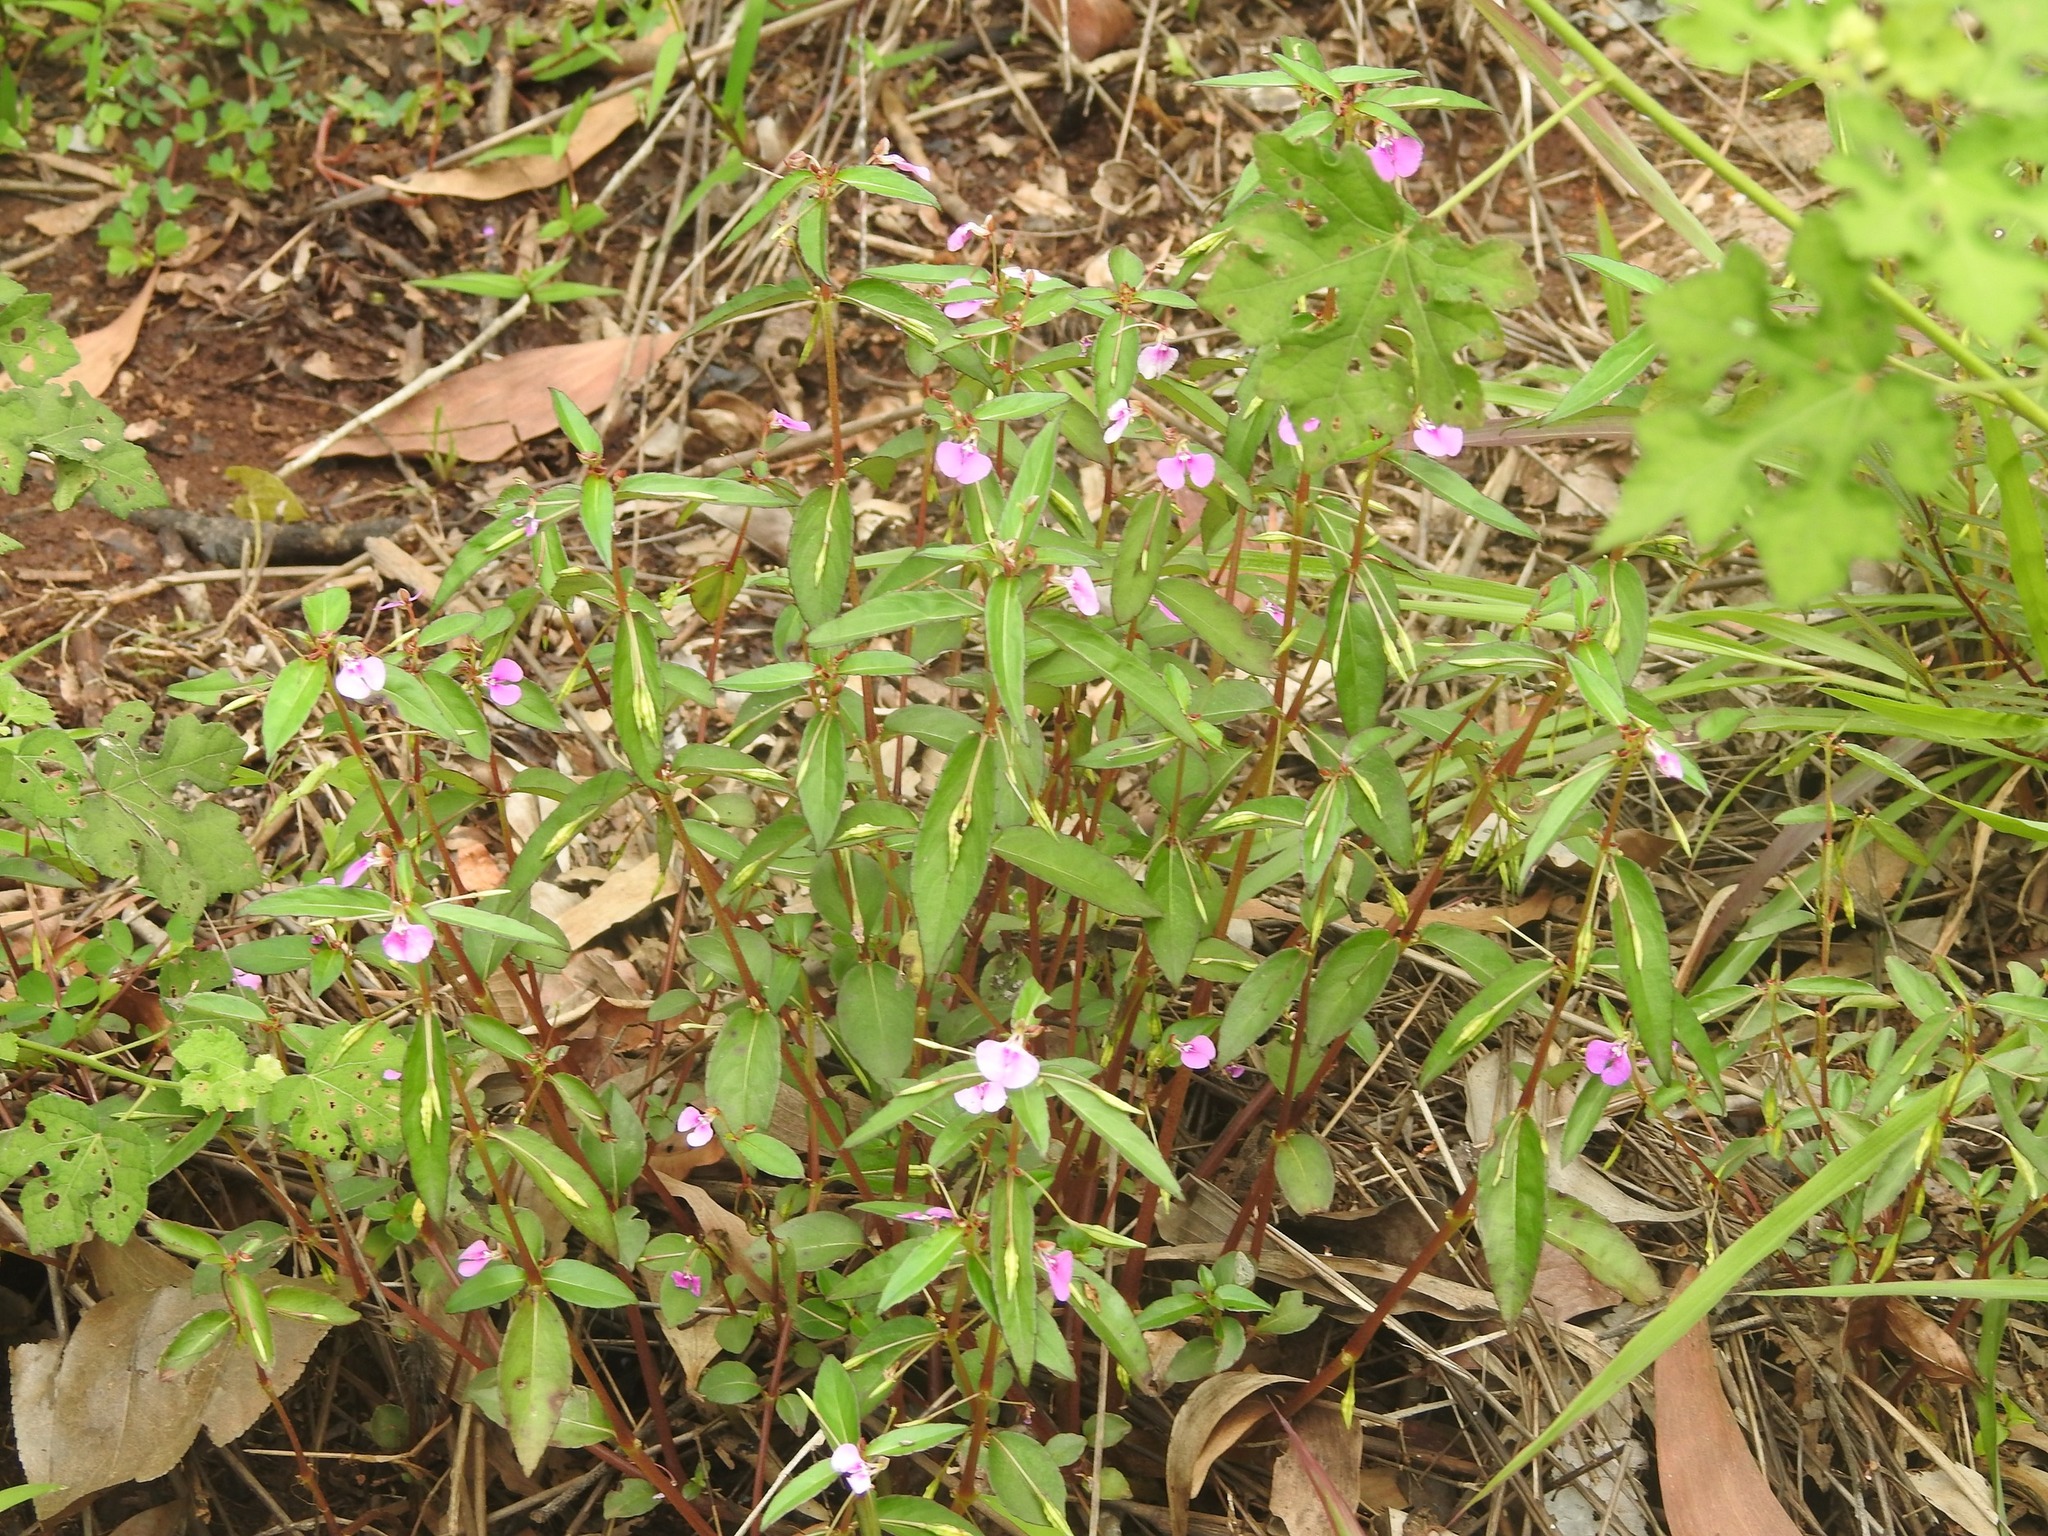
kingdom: Plantae
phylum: Tracheophyta
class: Magnoliopsida
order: Ericales
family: Balsaminaceae
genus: Impatiens
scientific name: Impatiens minor
